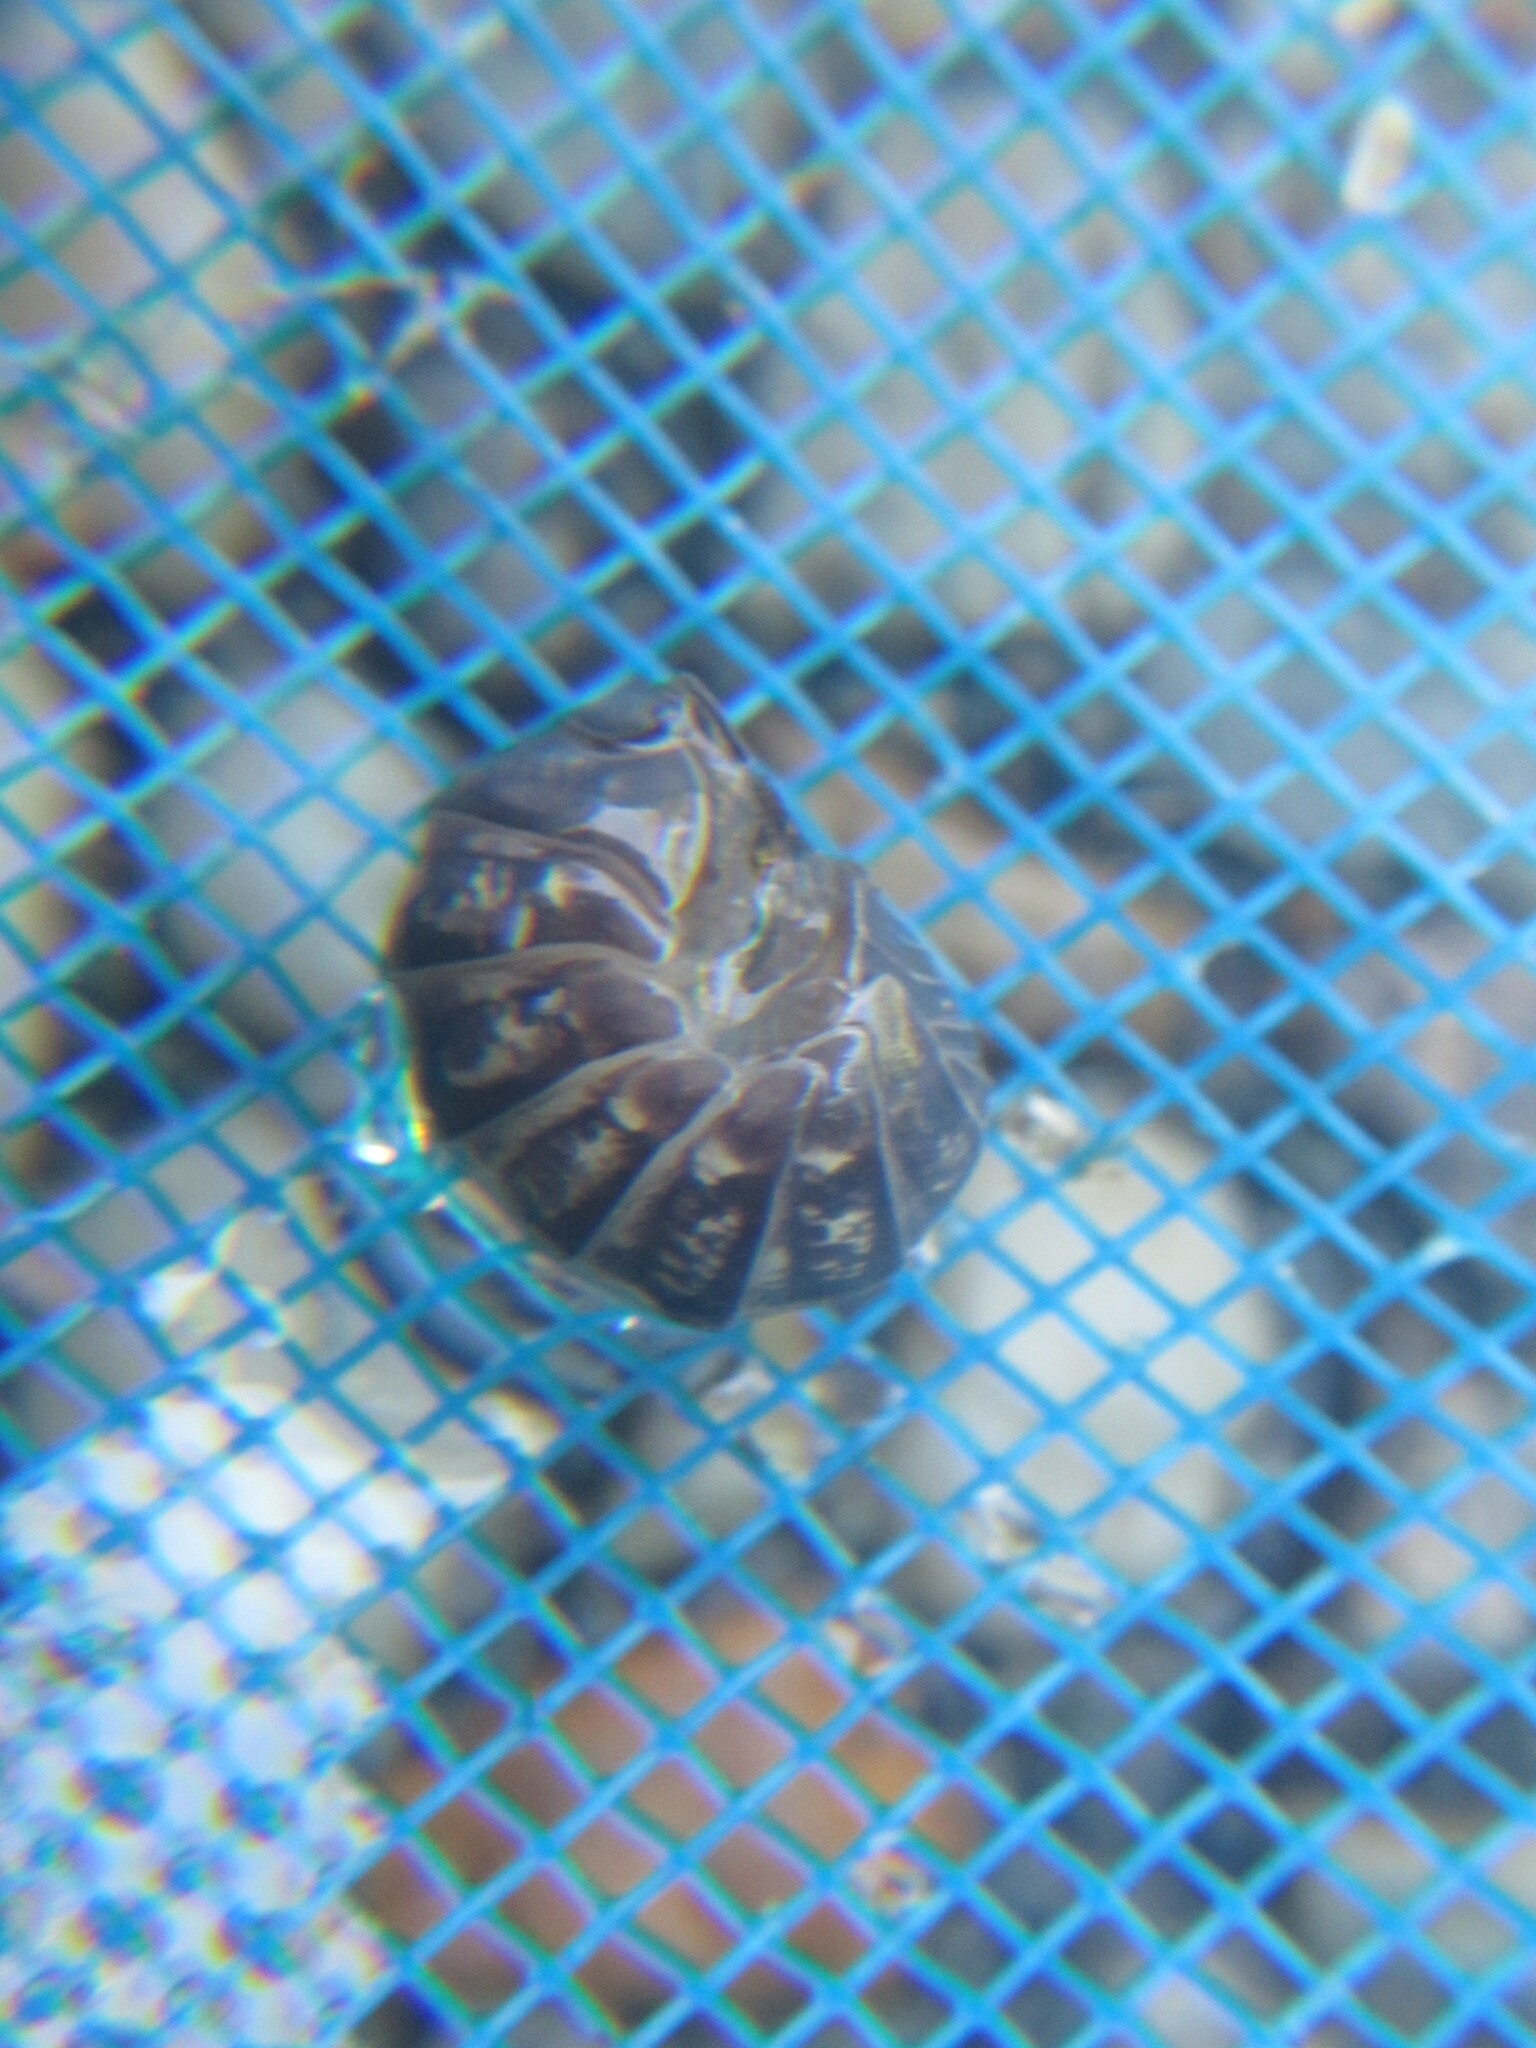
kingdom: Animalia
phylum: Arthropoda
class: Malacostraca
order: Isopoda
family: Armadillidiidae
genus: Armadillidium
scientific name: Armadillidium vulgare
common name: Common pill woodlouse
